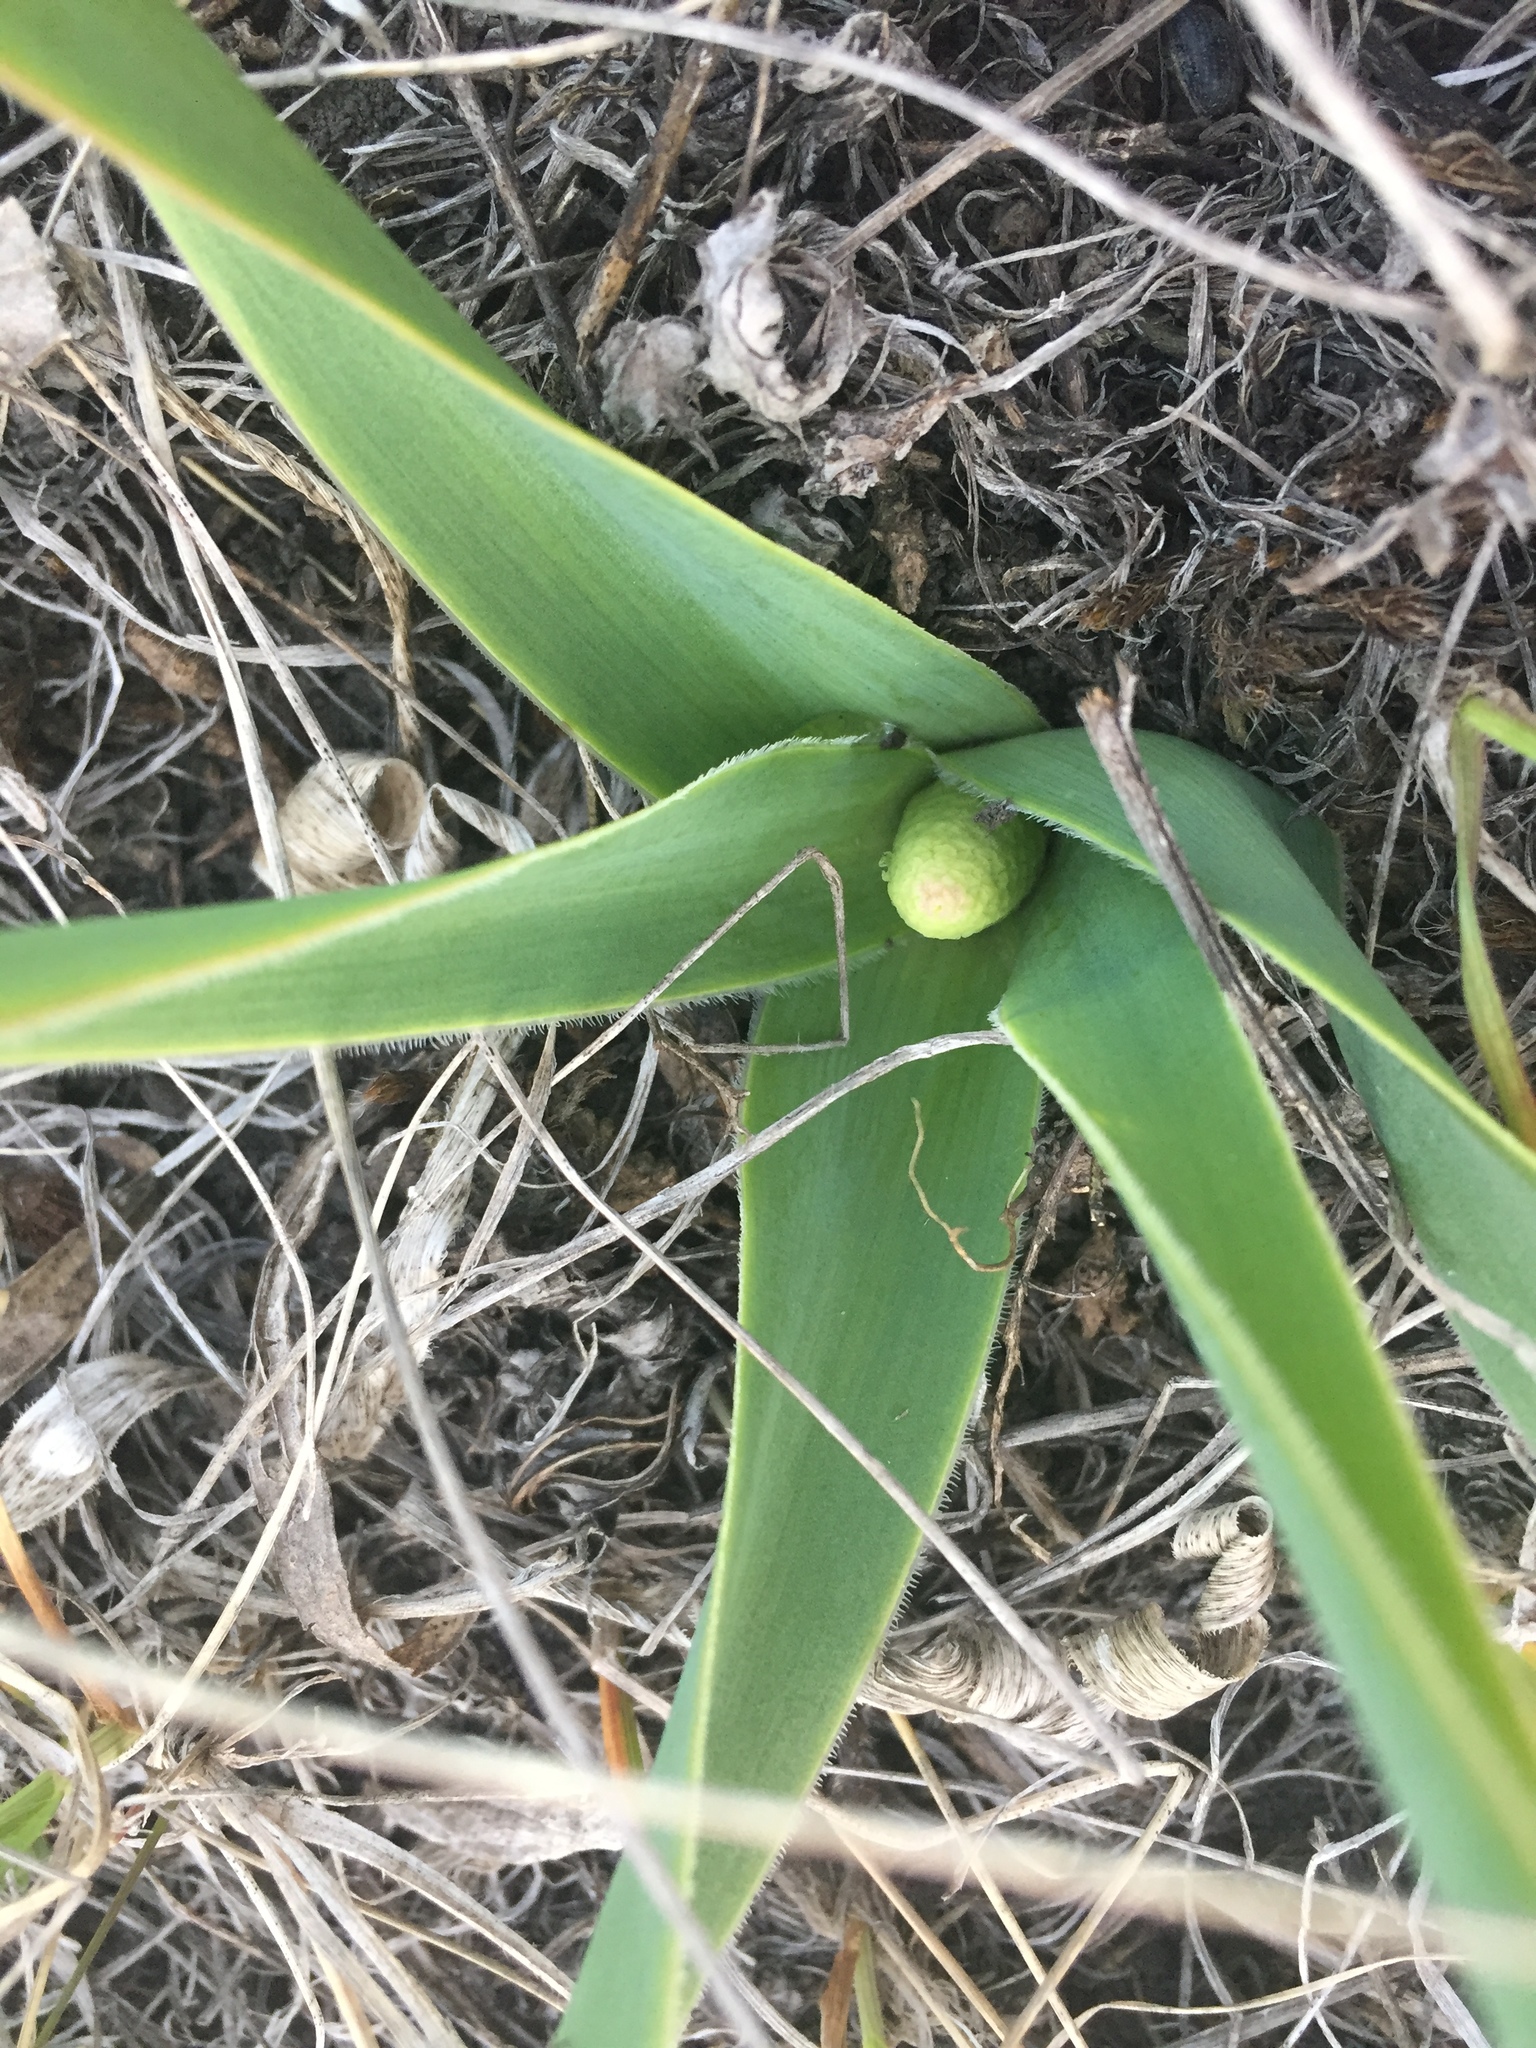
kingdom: Plantae
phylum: Tracheophyta
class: Liliopsida
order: Asparagales
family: Asparagaceae
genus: Bellevalia
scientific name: Bellevalia speciosa
